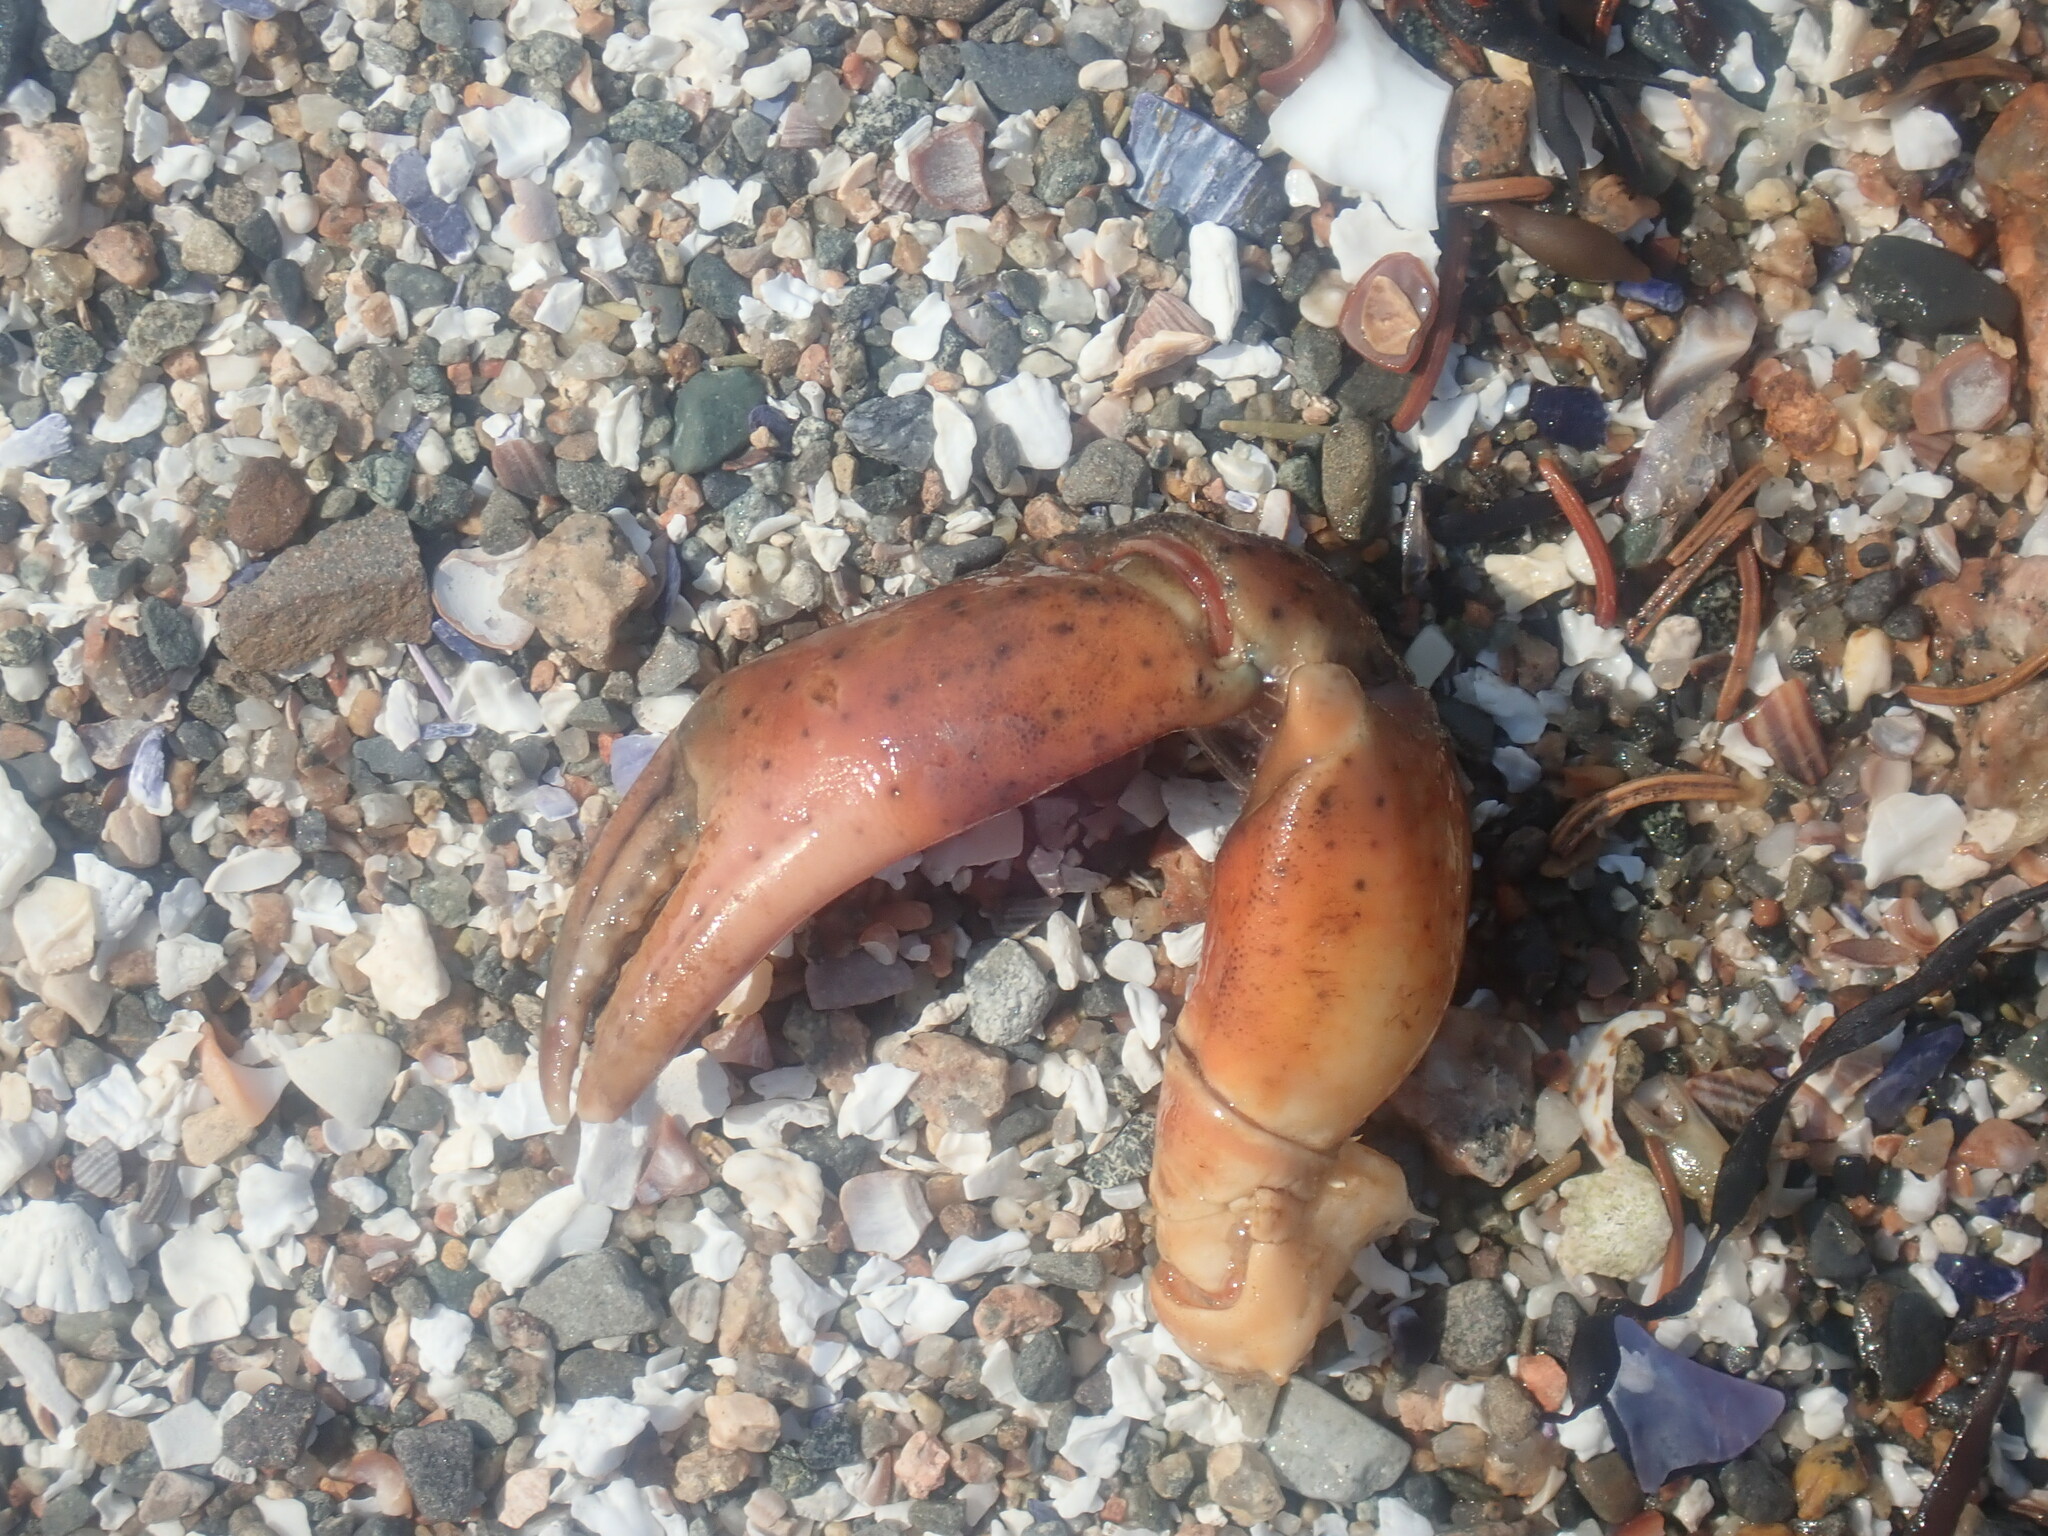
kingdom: Animalia
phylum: Arthropoda
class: Malacostraca
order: Decapoda
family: Carcinidae
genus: Carcinus
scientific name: Carcinus maenas
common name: European green crab
